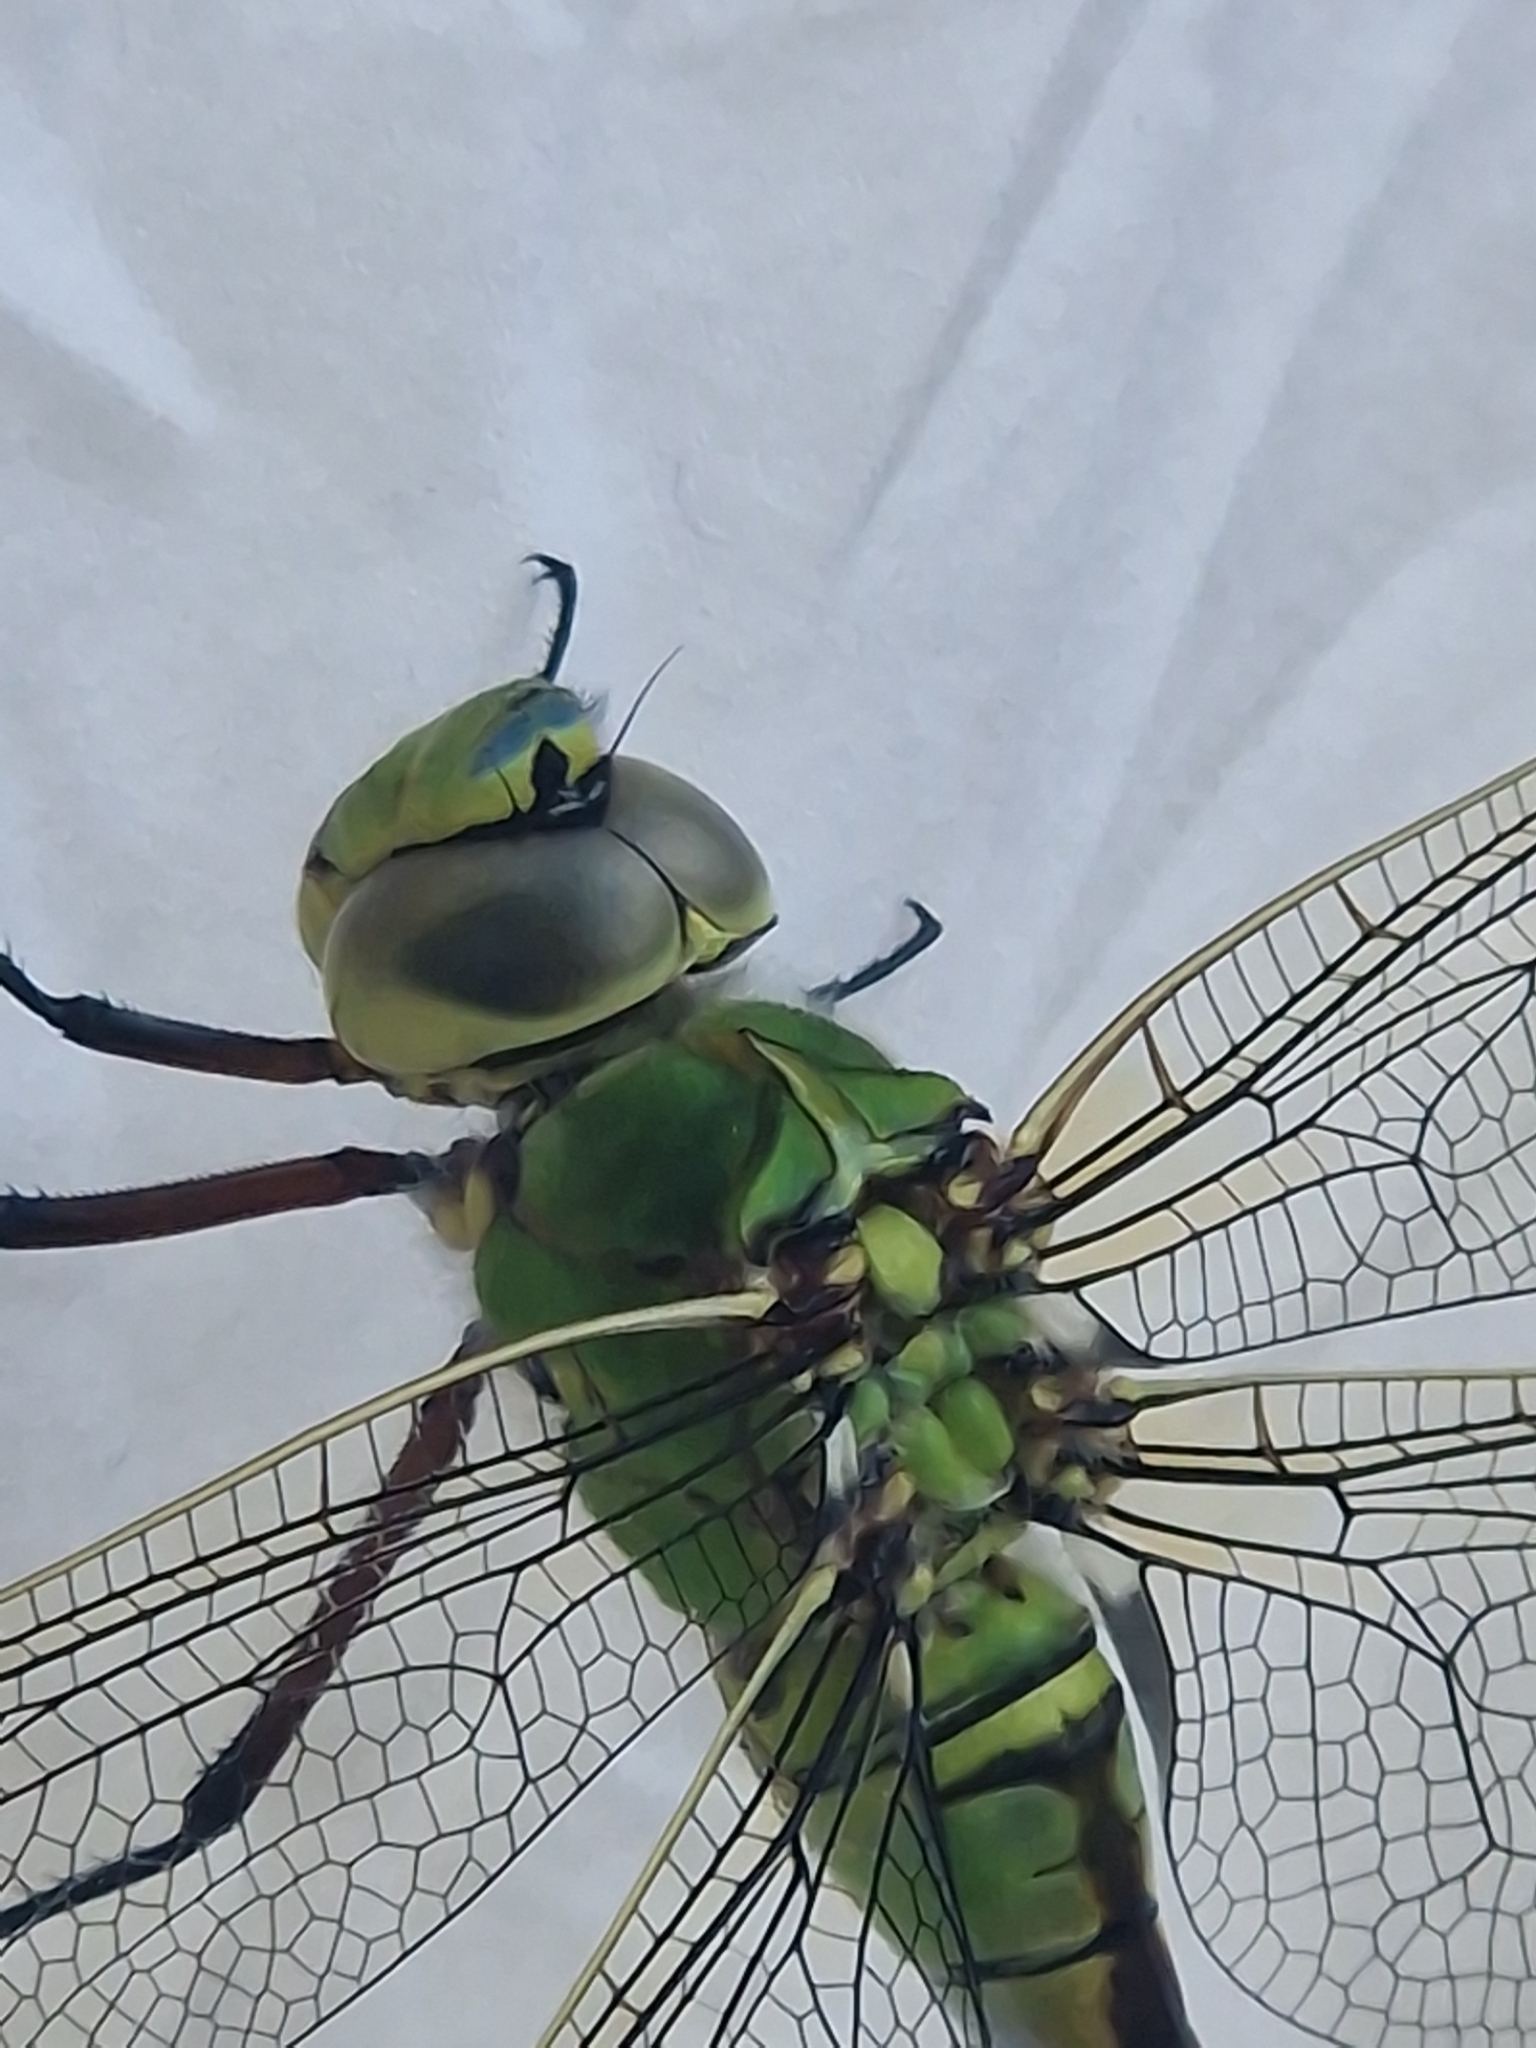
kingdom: Animalia
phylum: Arthropoda
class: Insecta
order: Odonata
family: Aeshnidae
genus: Anax
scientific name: Anax imperator
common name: Emperor dragonfly
